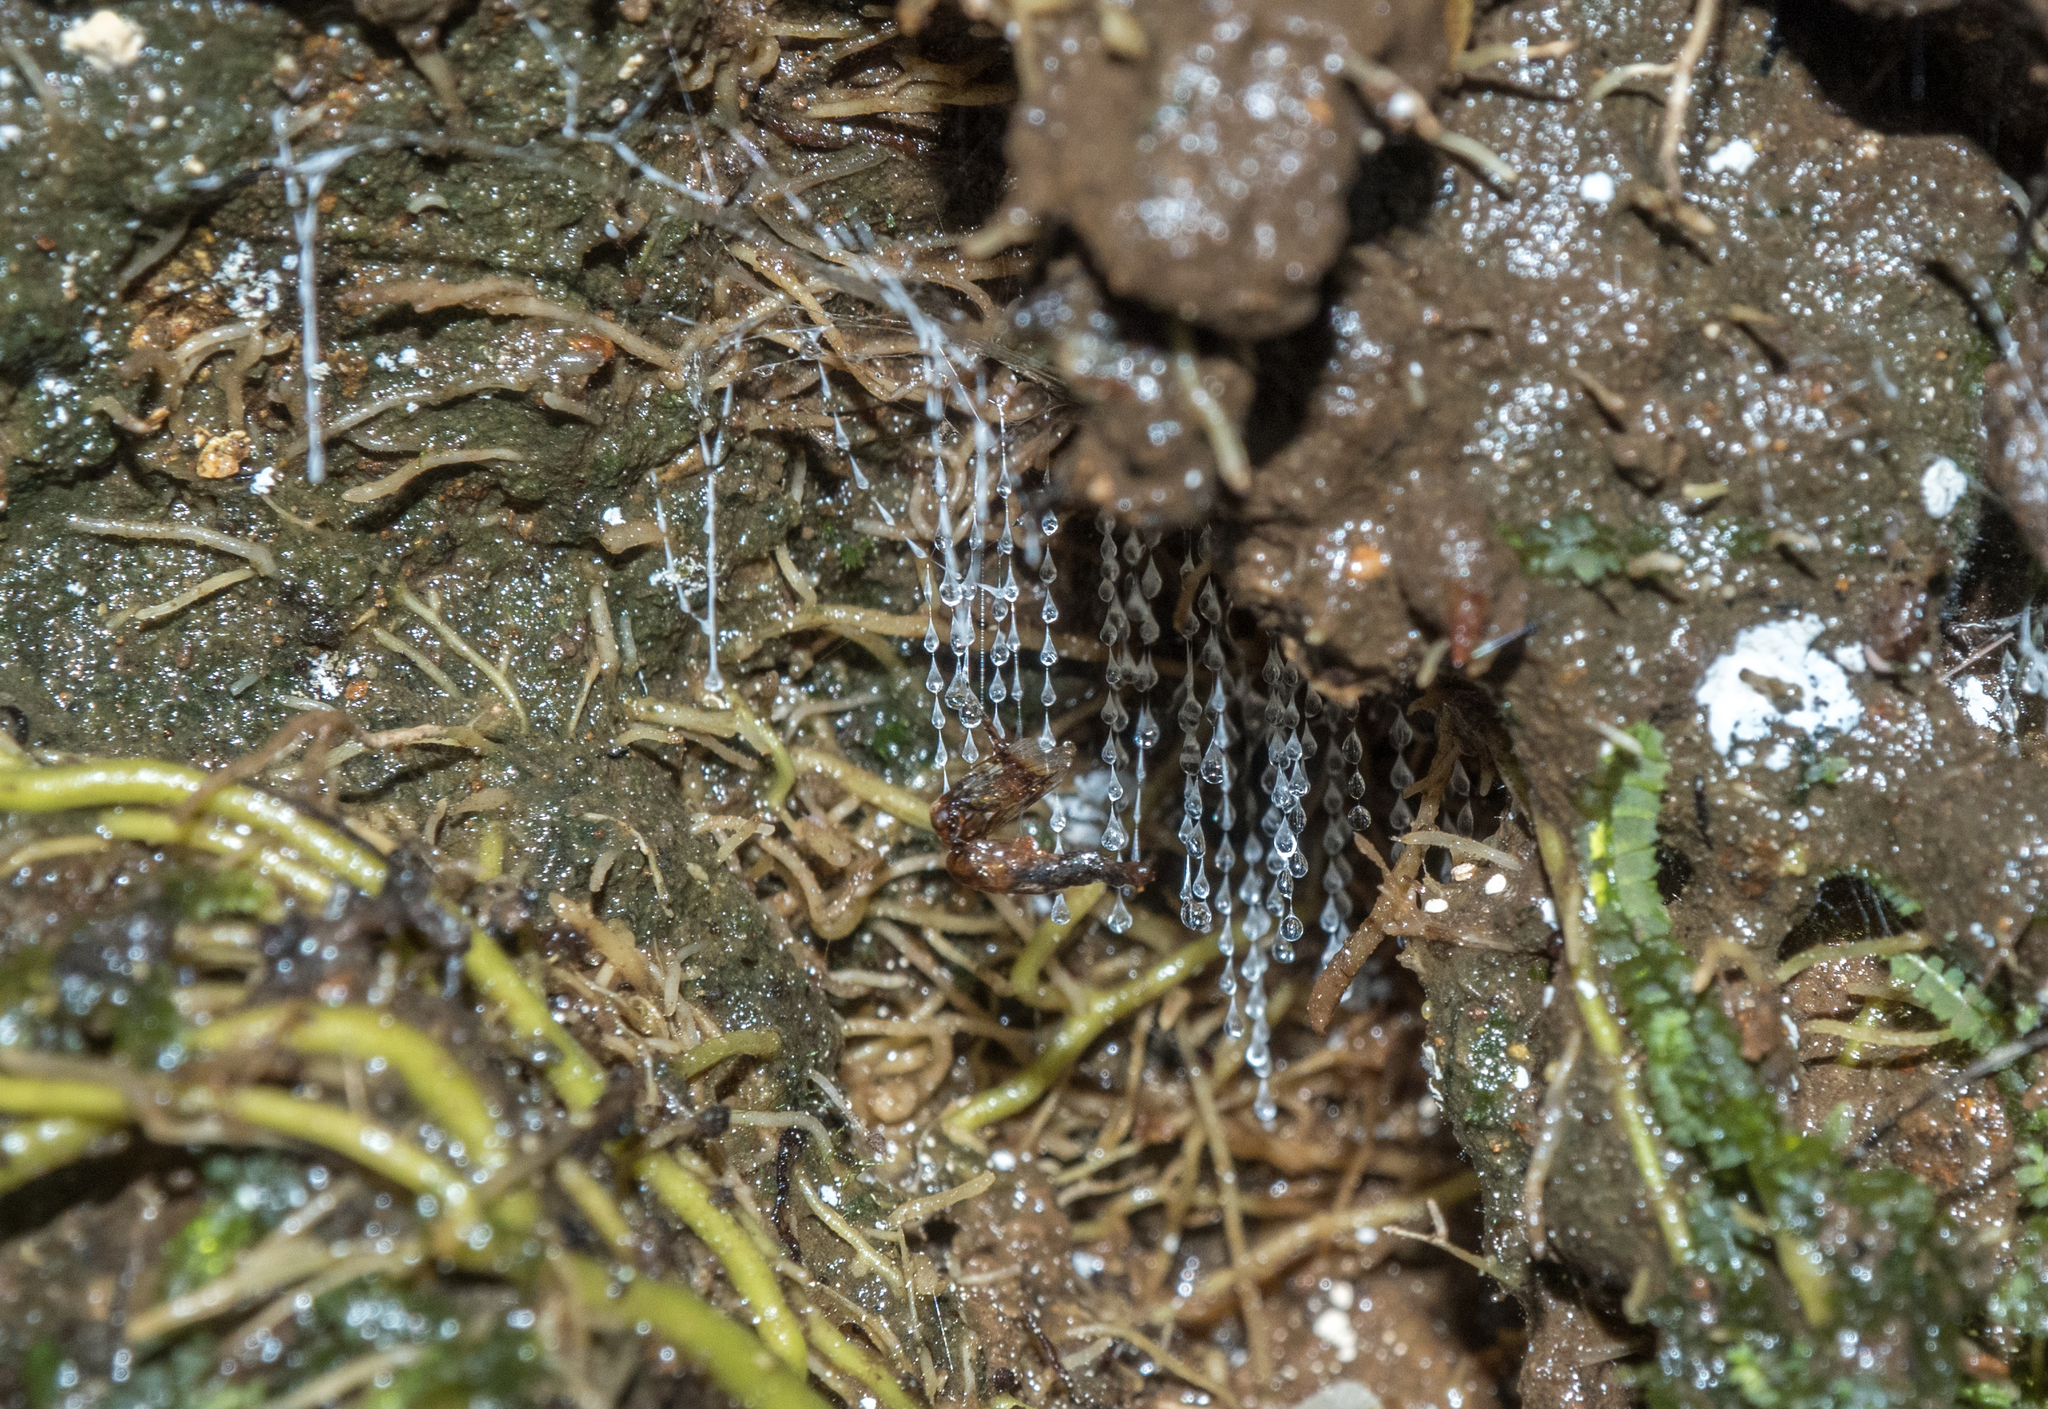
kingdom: Animalia
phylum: Arthropoda
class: Insecta
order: Diptera
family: Keroplatidae
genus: Arachnocampa
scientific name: Arachnocampa luminosa
